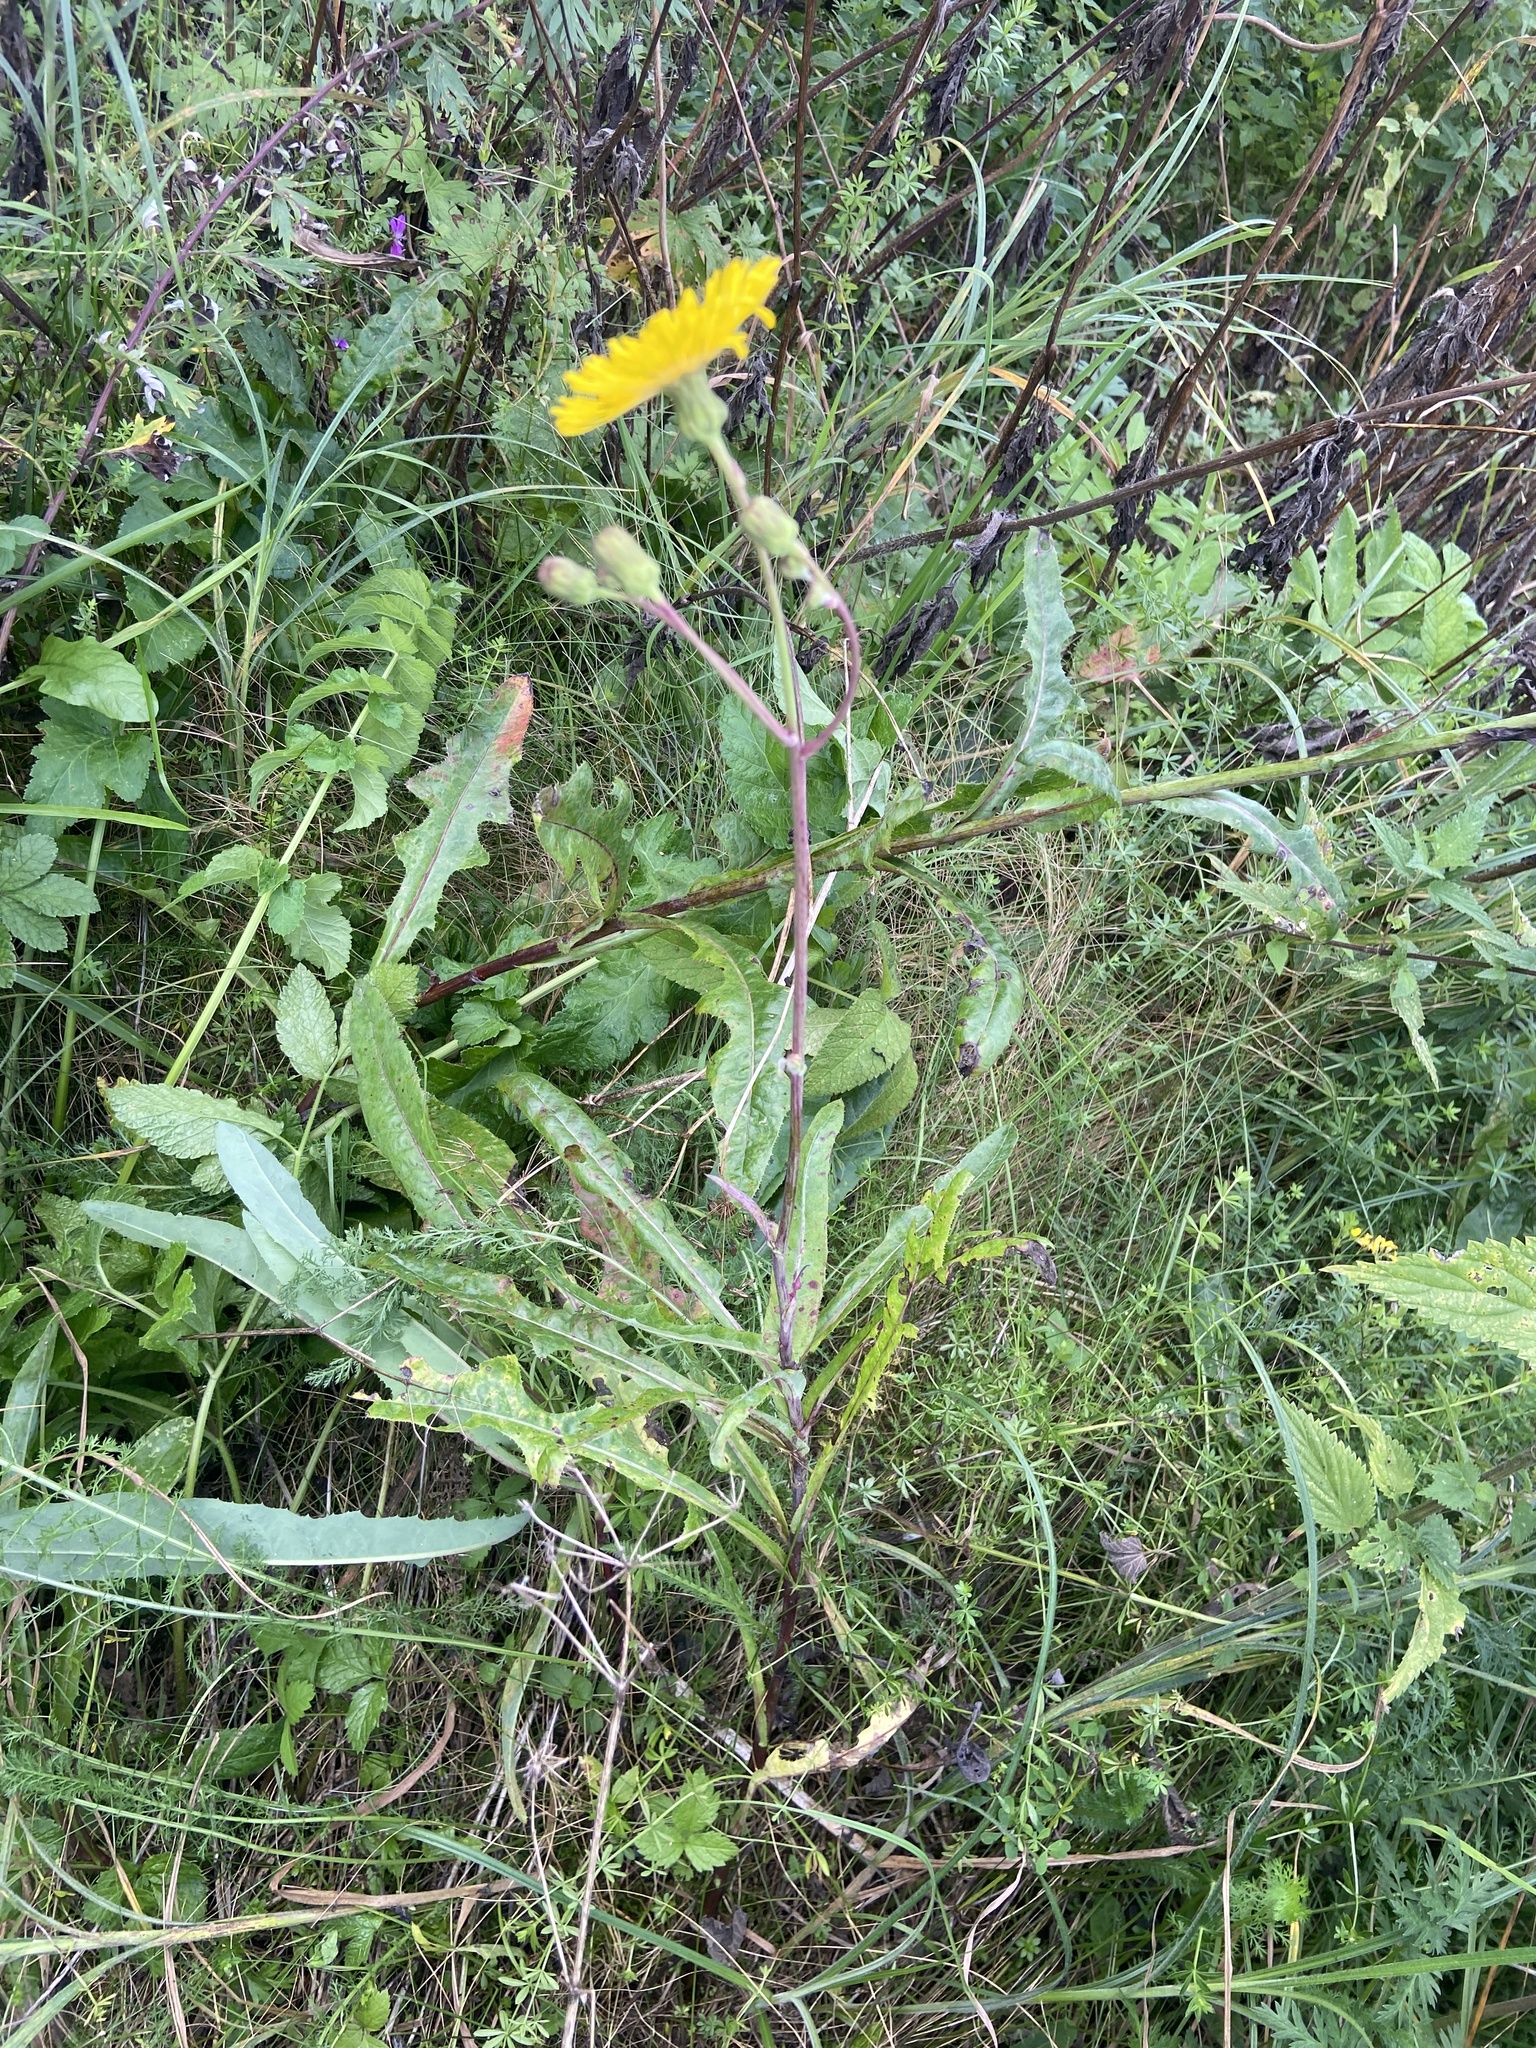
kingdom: Plantae
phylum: Tracheophyta
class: Magnoliopsida
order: Asterales
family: Asteraceae
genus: Sonchus
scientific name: Sonchus arvensis
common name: Perennial sow-thistle
